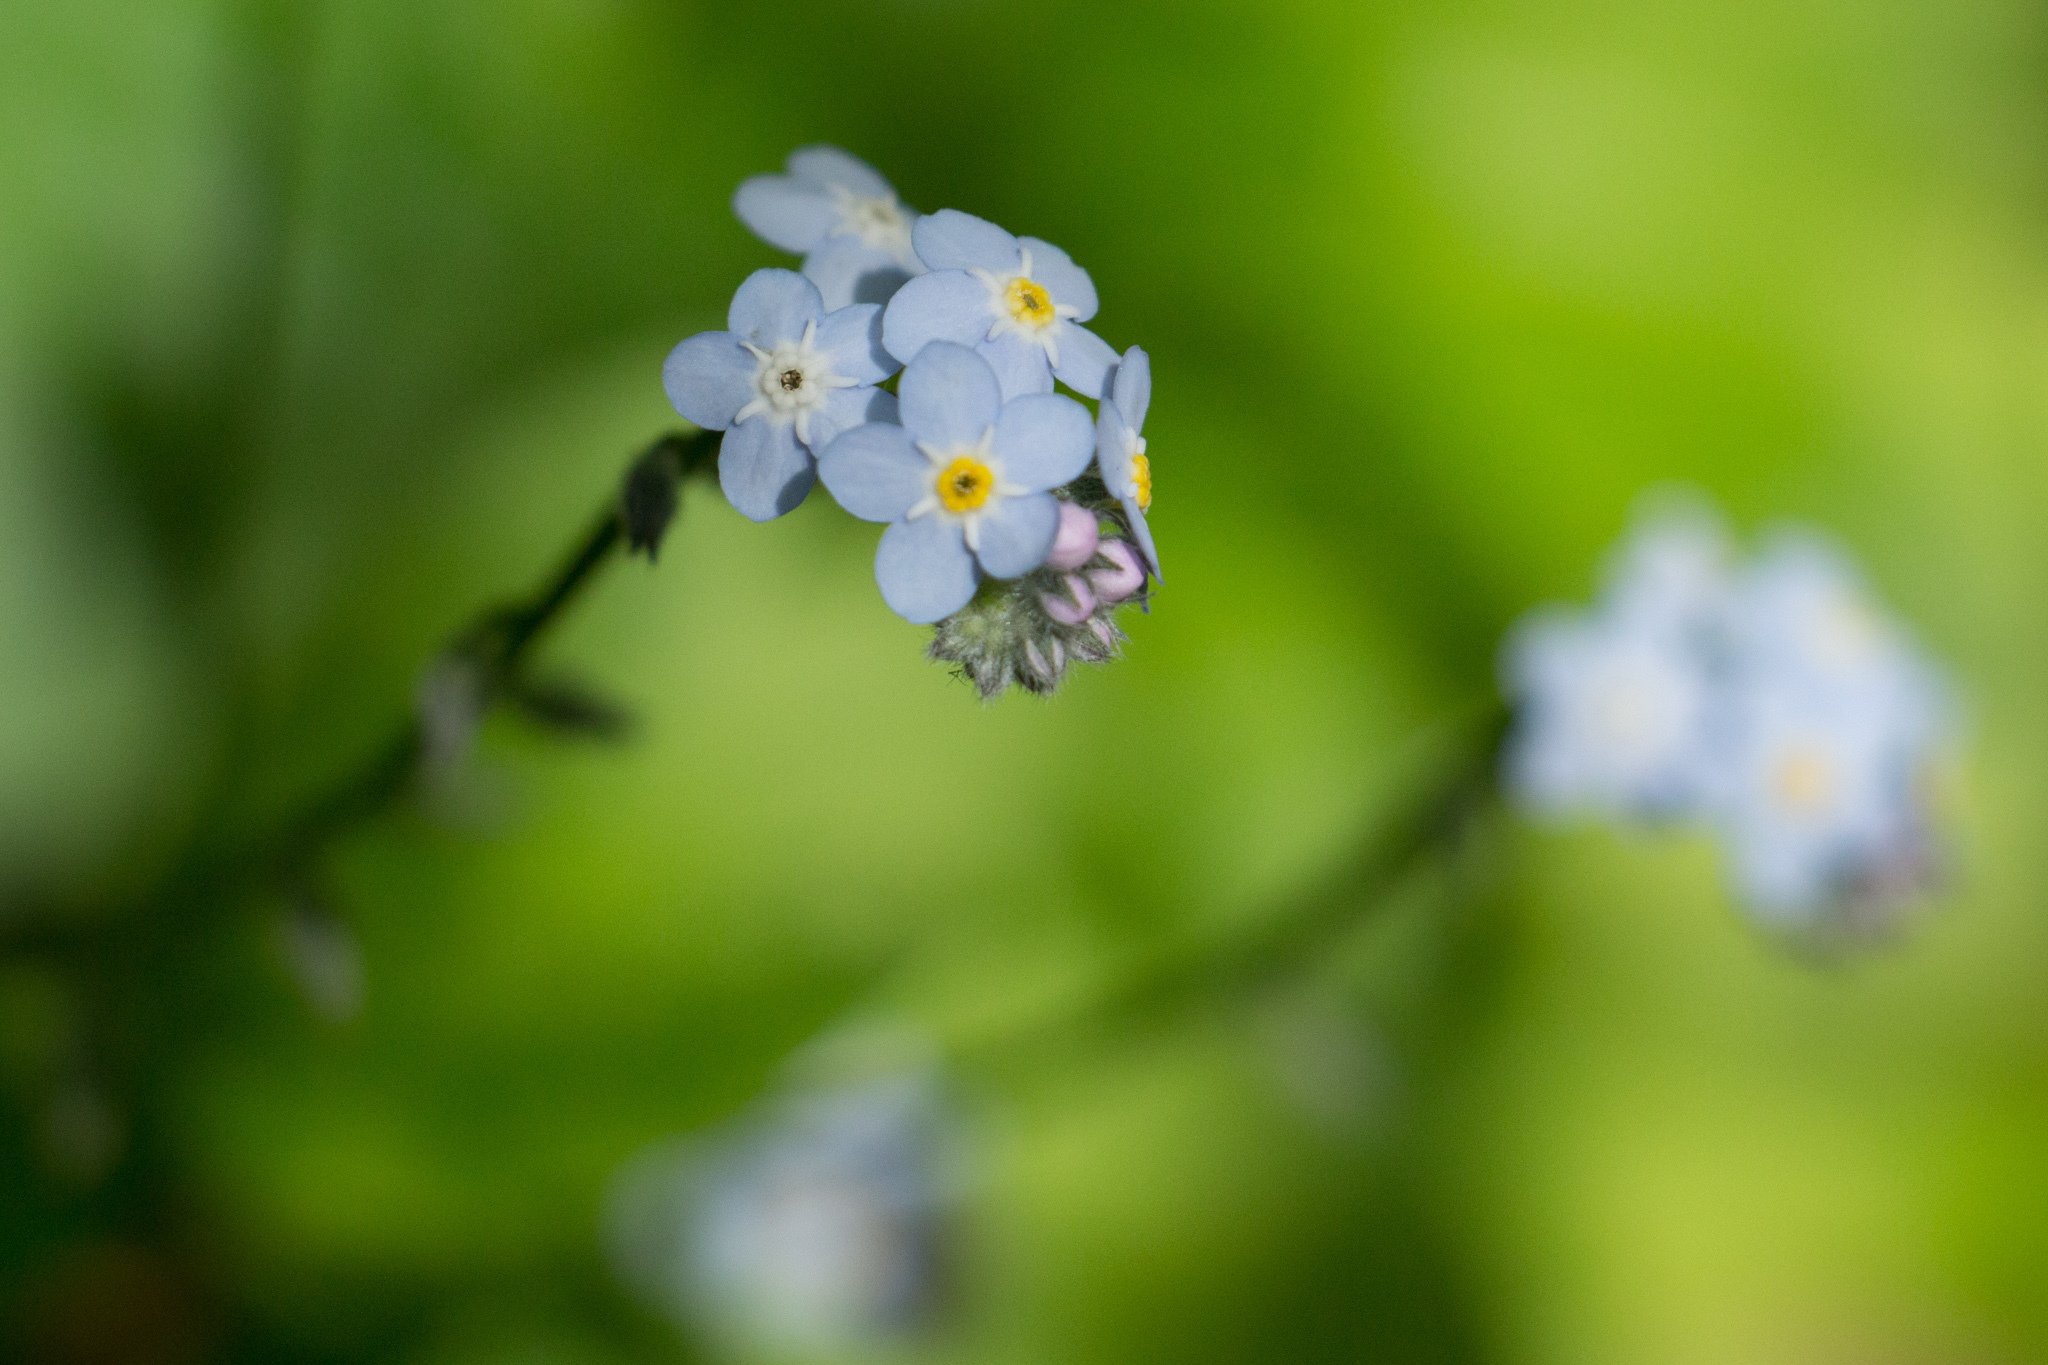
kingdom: Plantae
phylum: Tracheophyta
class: Magnoliopsida
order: Boraginales
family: Boraginaceae
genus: Myosotis
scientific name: Myosotis latifolia
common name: Broadleaf forget-me-not
